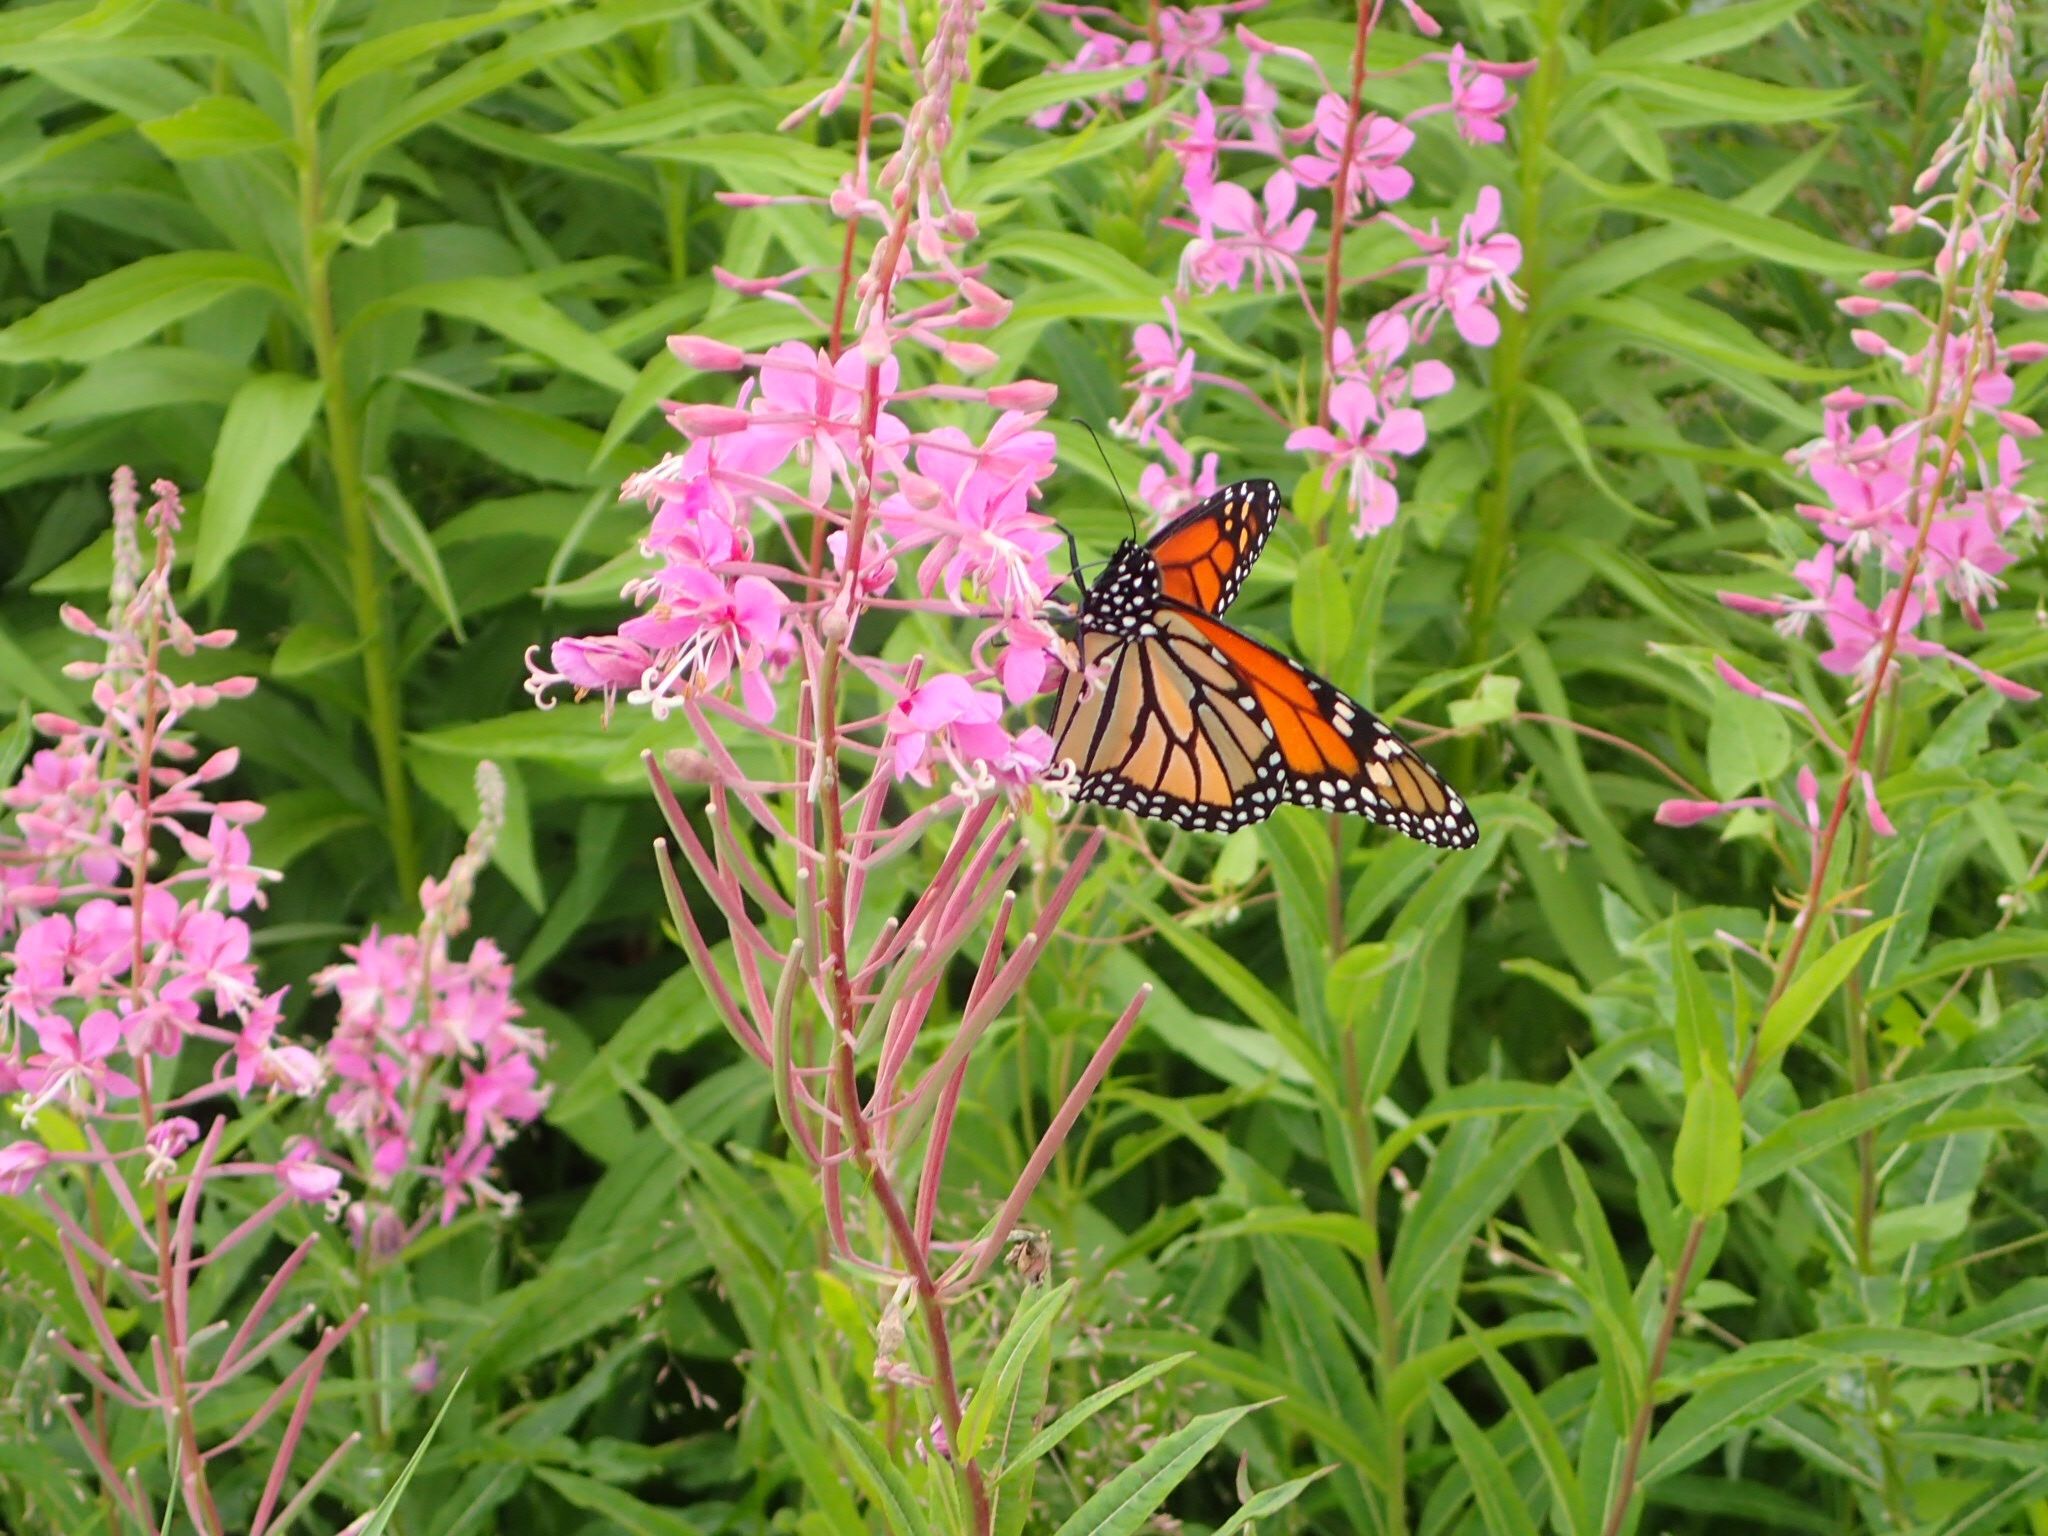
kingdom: Animalia
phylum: Arthropoda
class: Insecta
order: Lepidoptera
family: Nymphalidae
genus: Danaus
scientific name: Danaus plexippus
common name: Monarch
